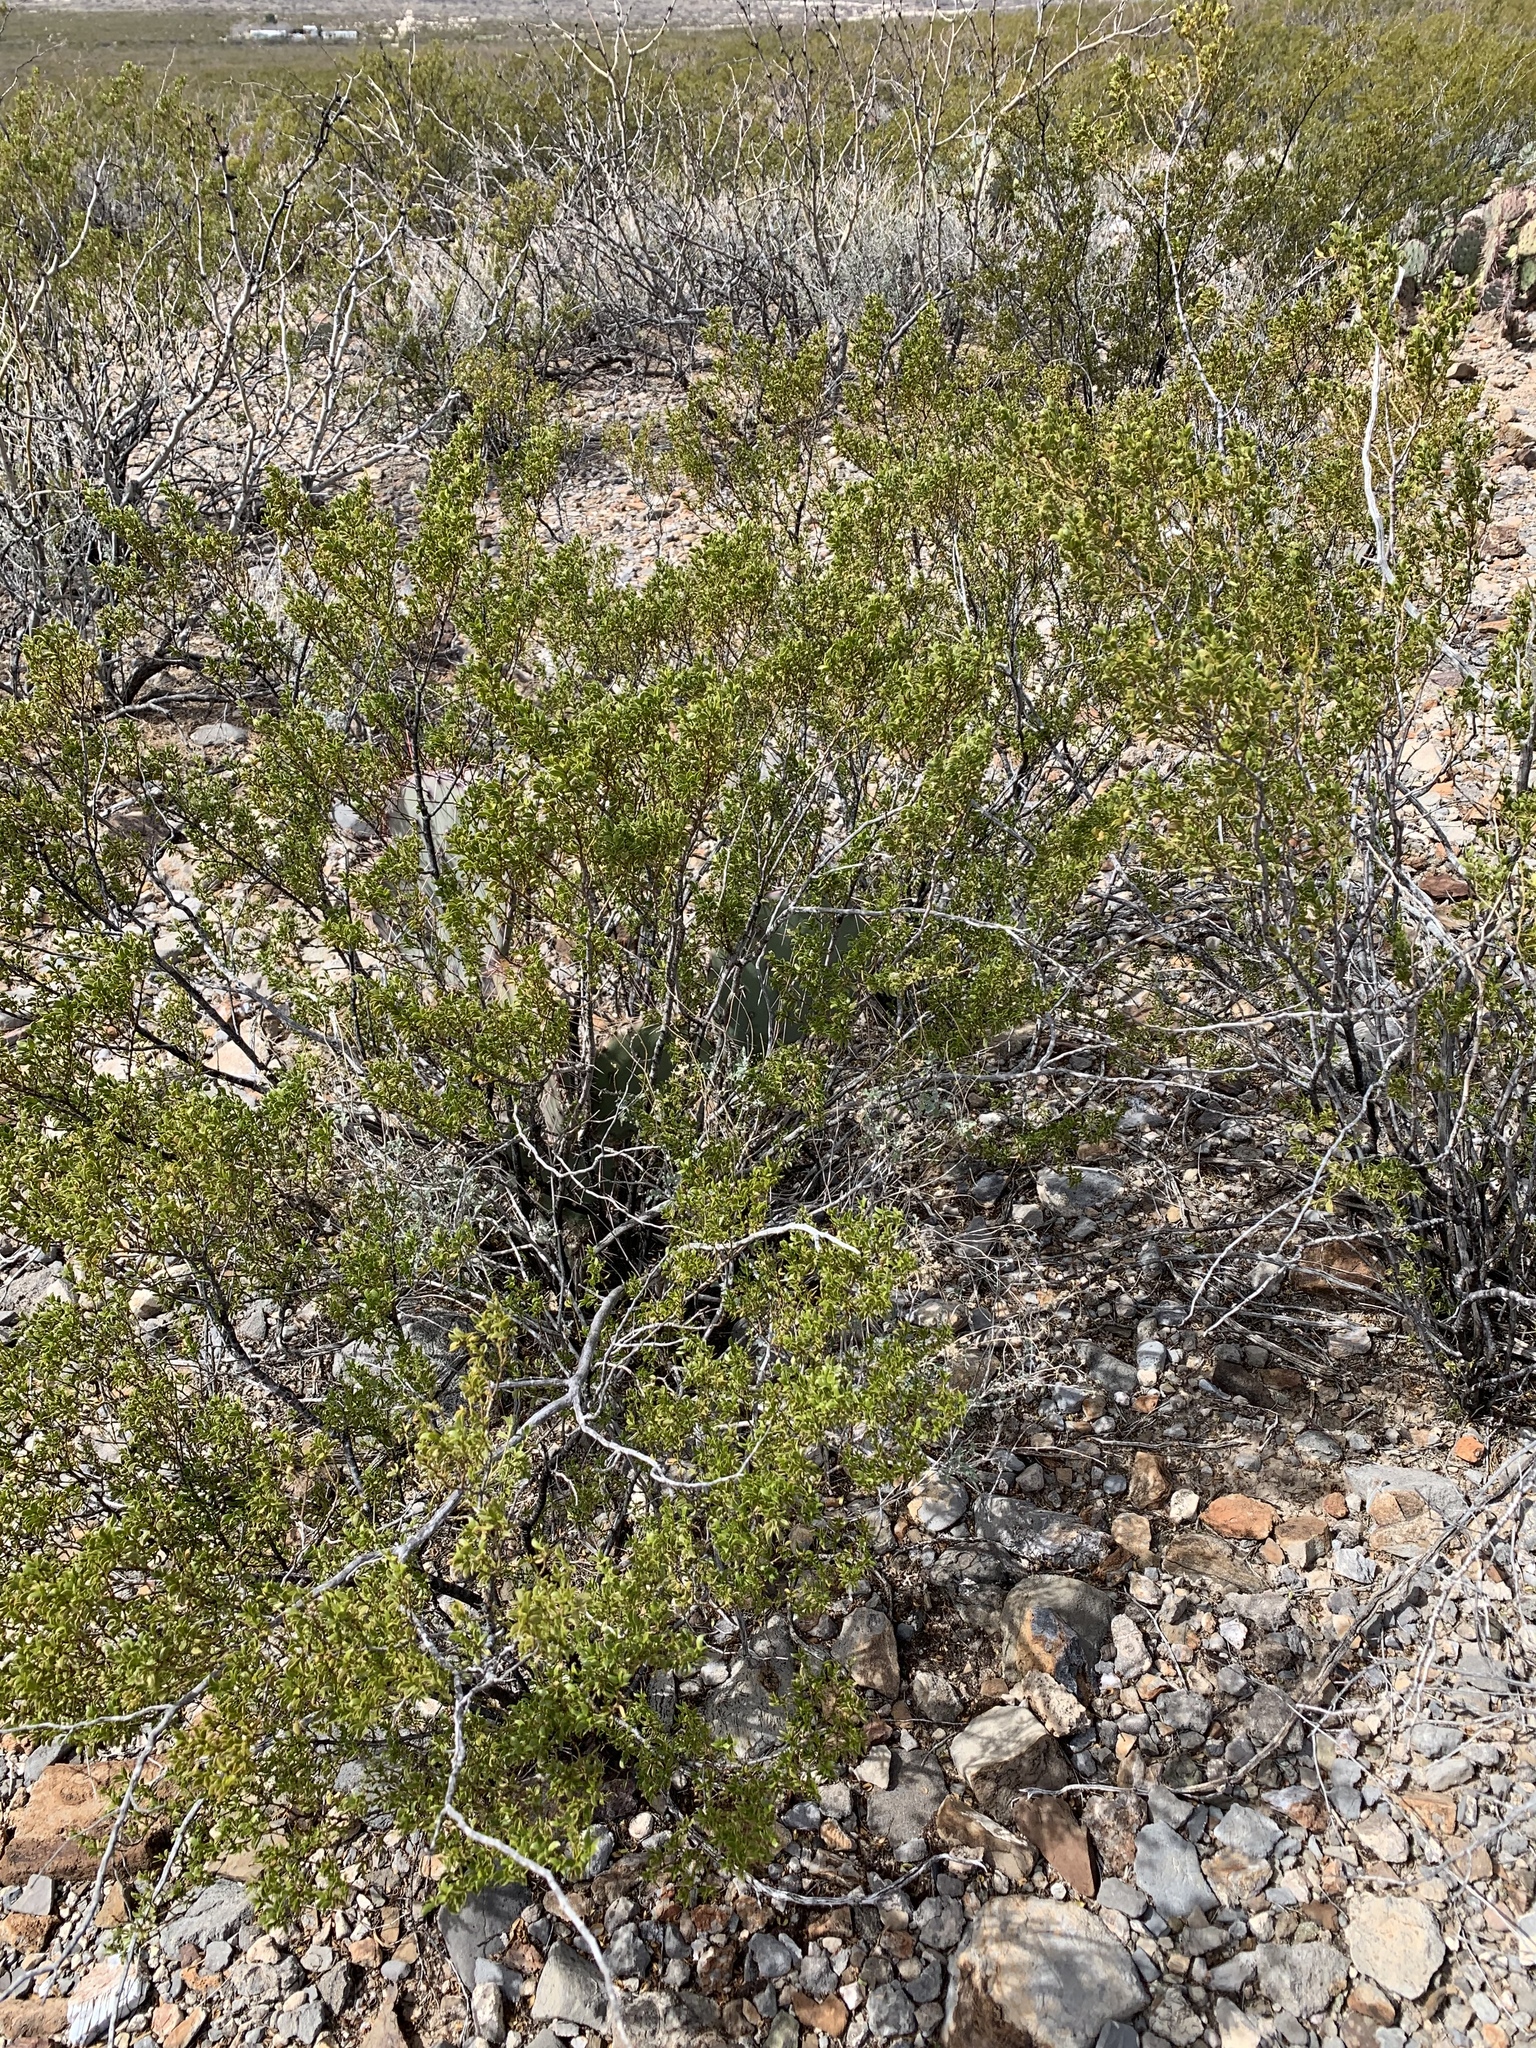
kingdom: Plantae
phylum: Tracheophyta
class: Magnoliopsida
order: Zygophyllales
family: Zygophyllaceae
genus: Larrea
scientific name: Larrea tridentata
